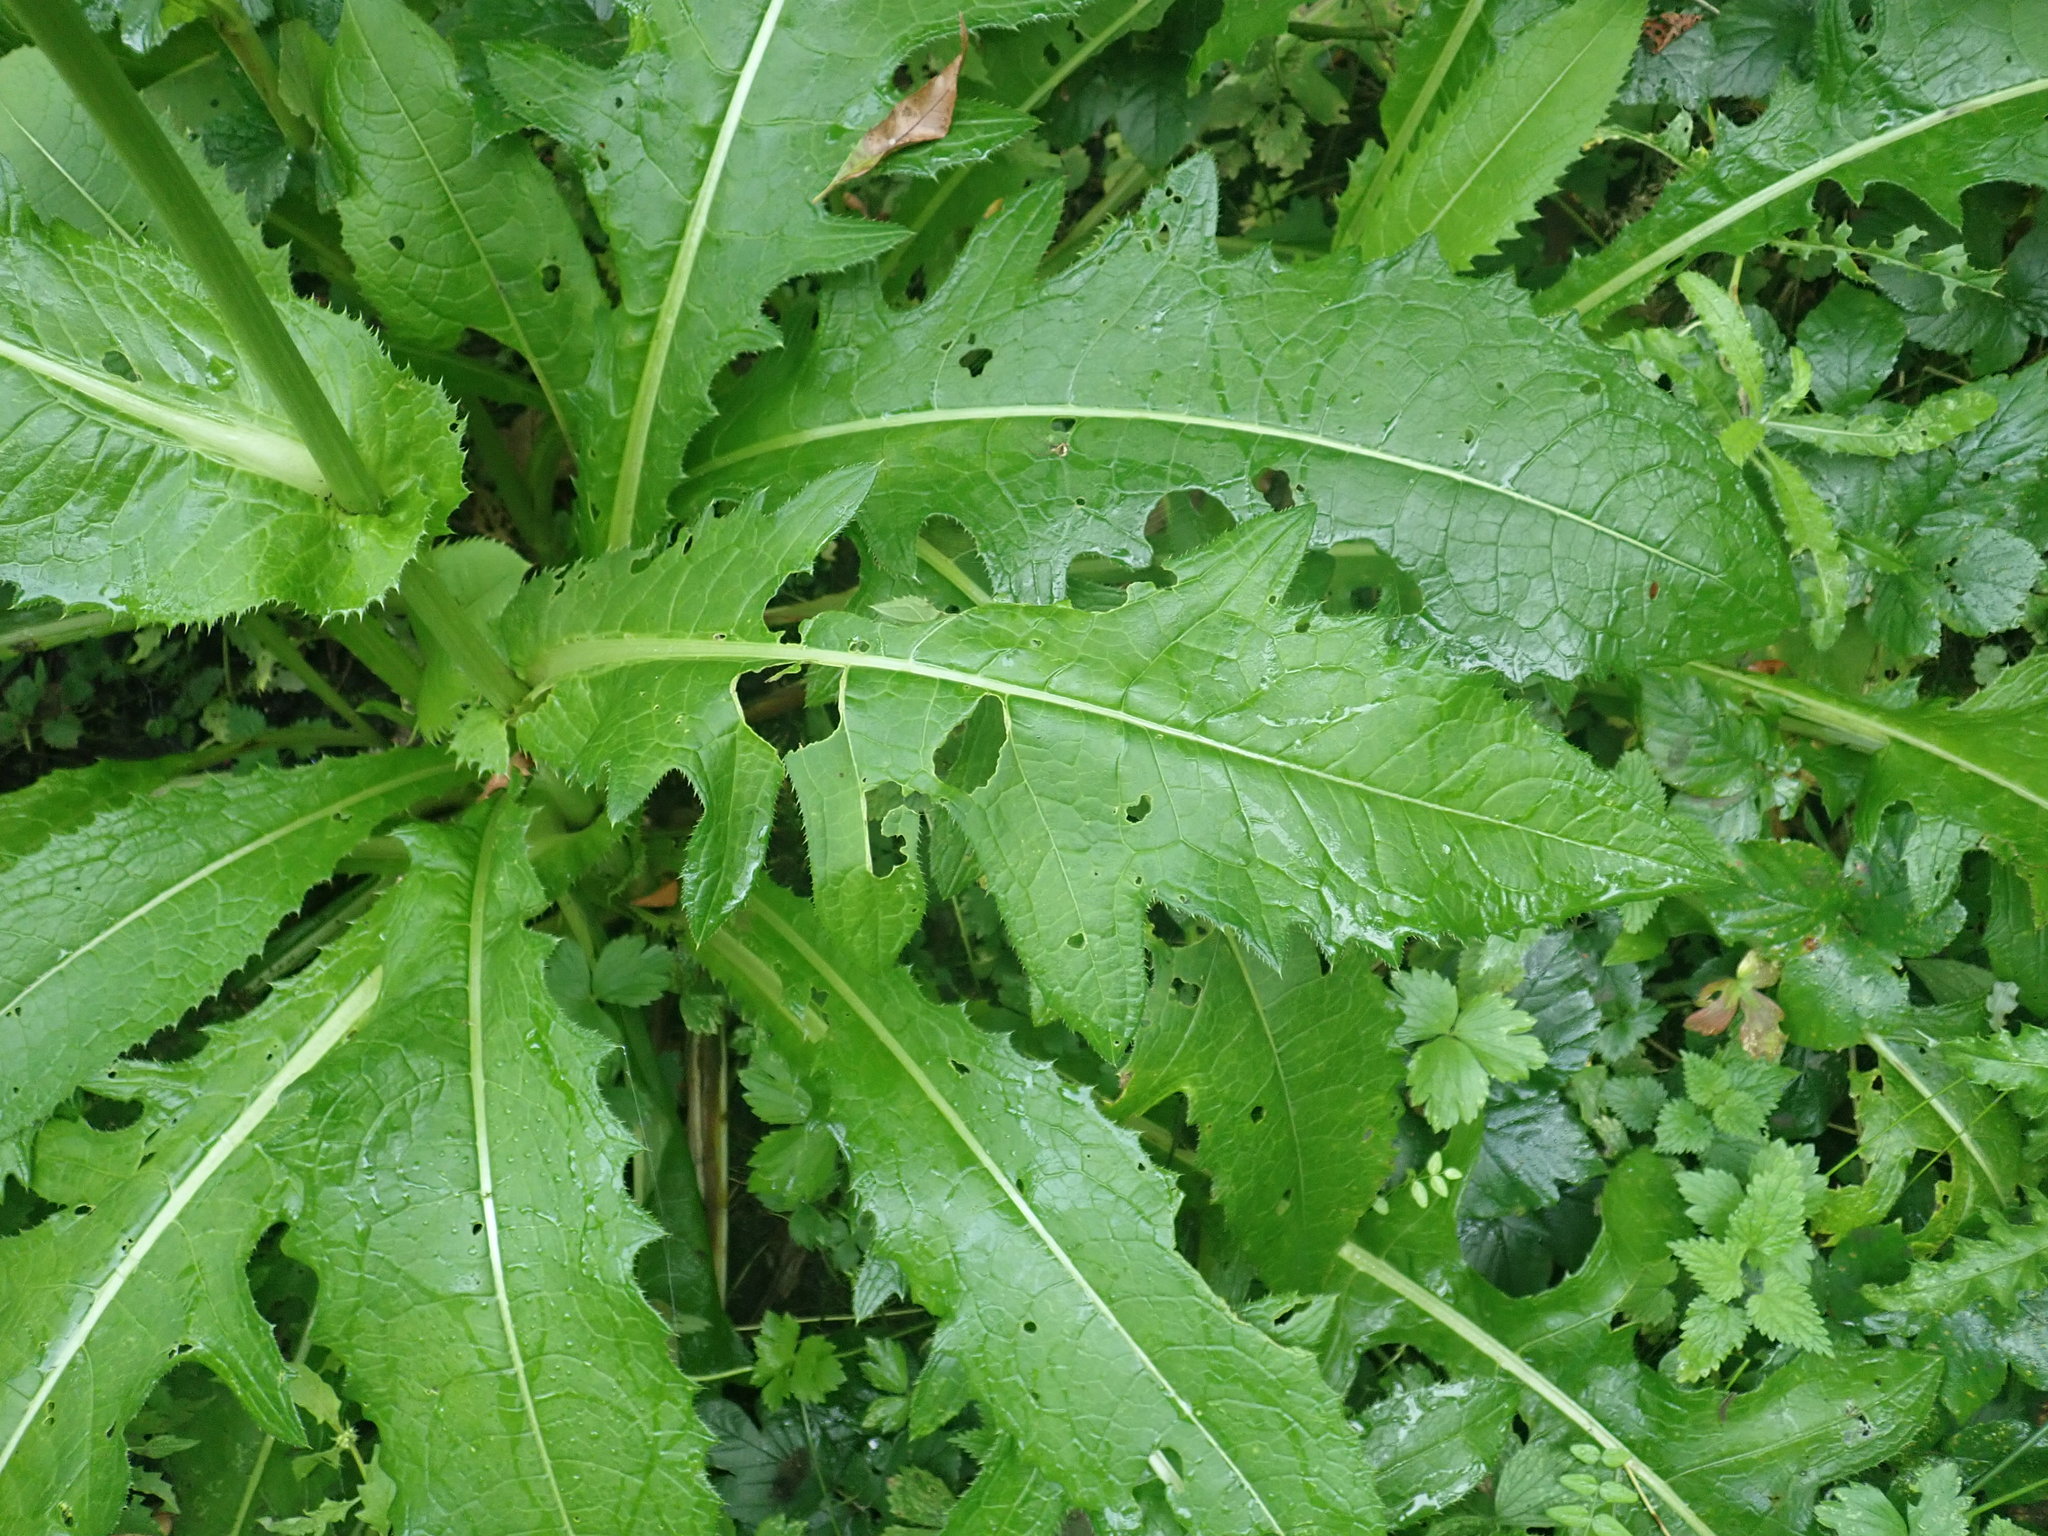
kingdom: Plantae
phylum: Tracheophyta
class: Magnoliopsida
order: Asterales
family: Asteraceae
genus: Cirsium
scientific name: Cirsium oleraceum
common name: Cabbage thistle
